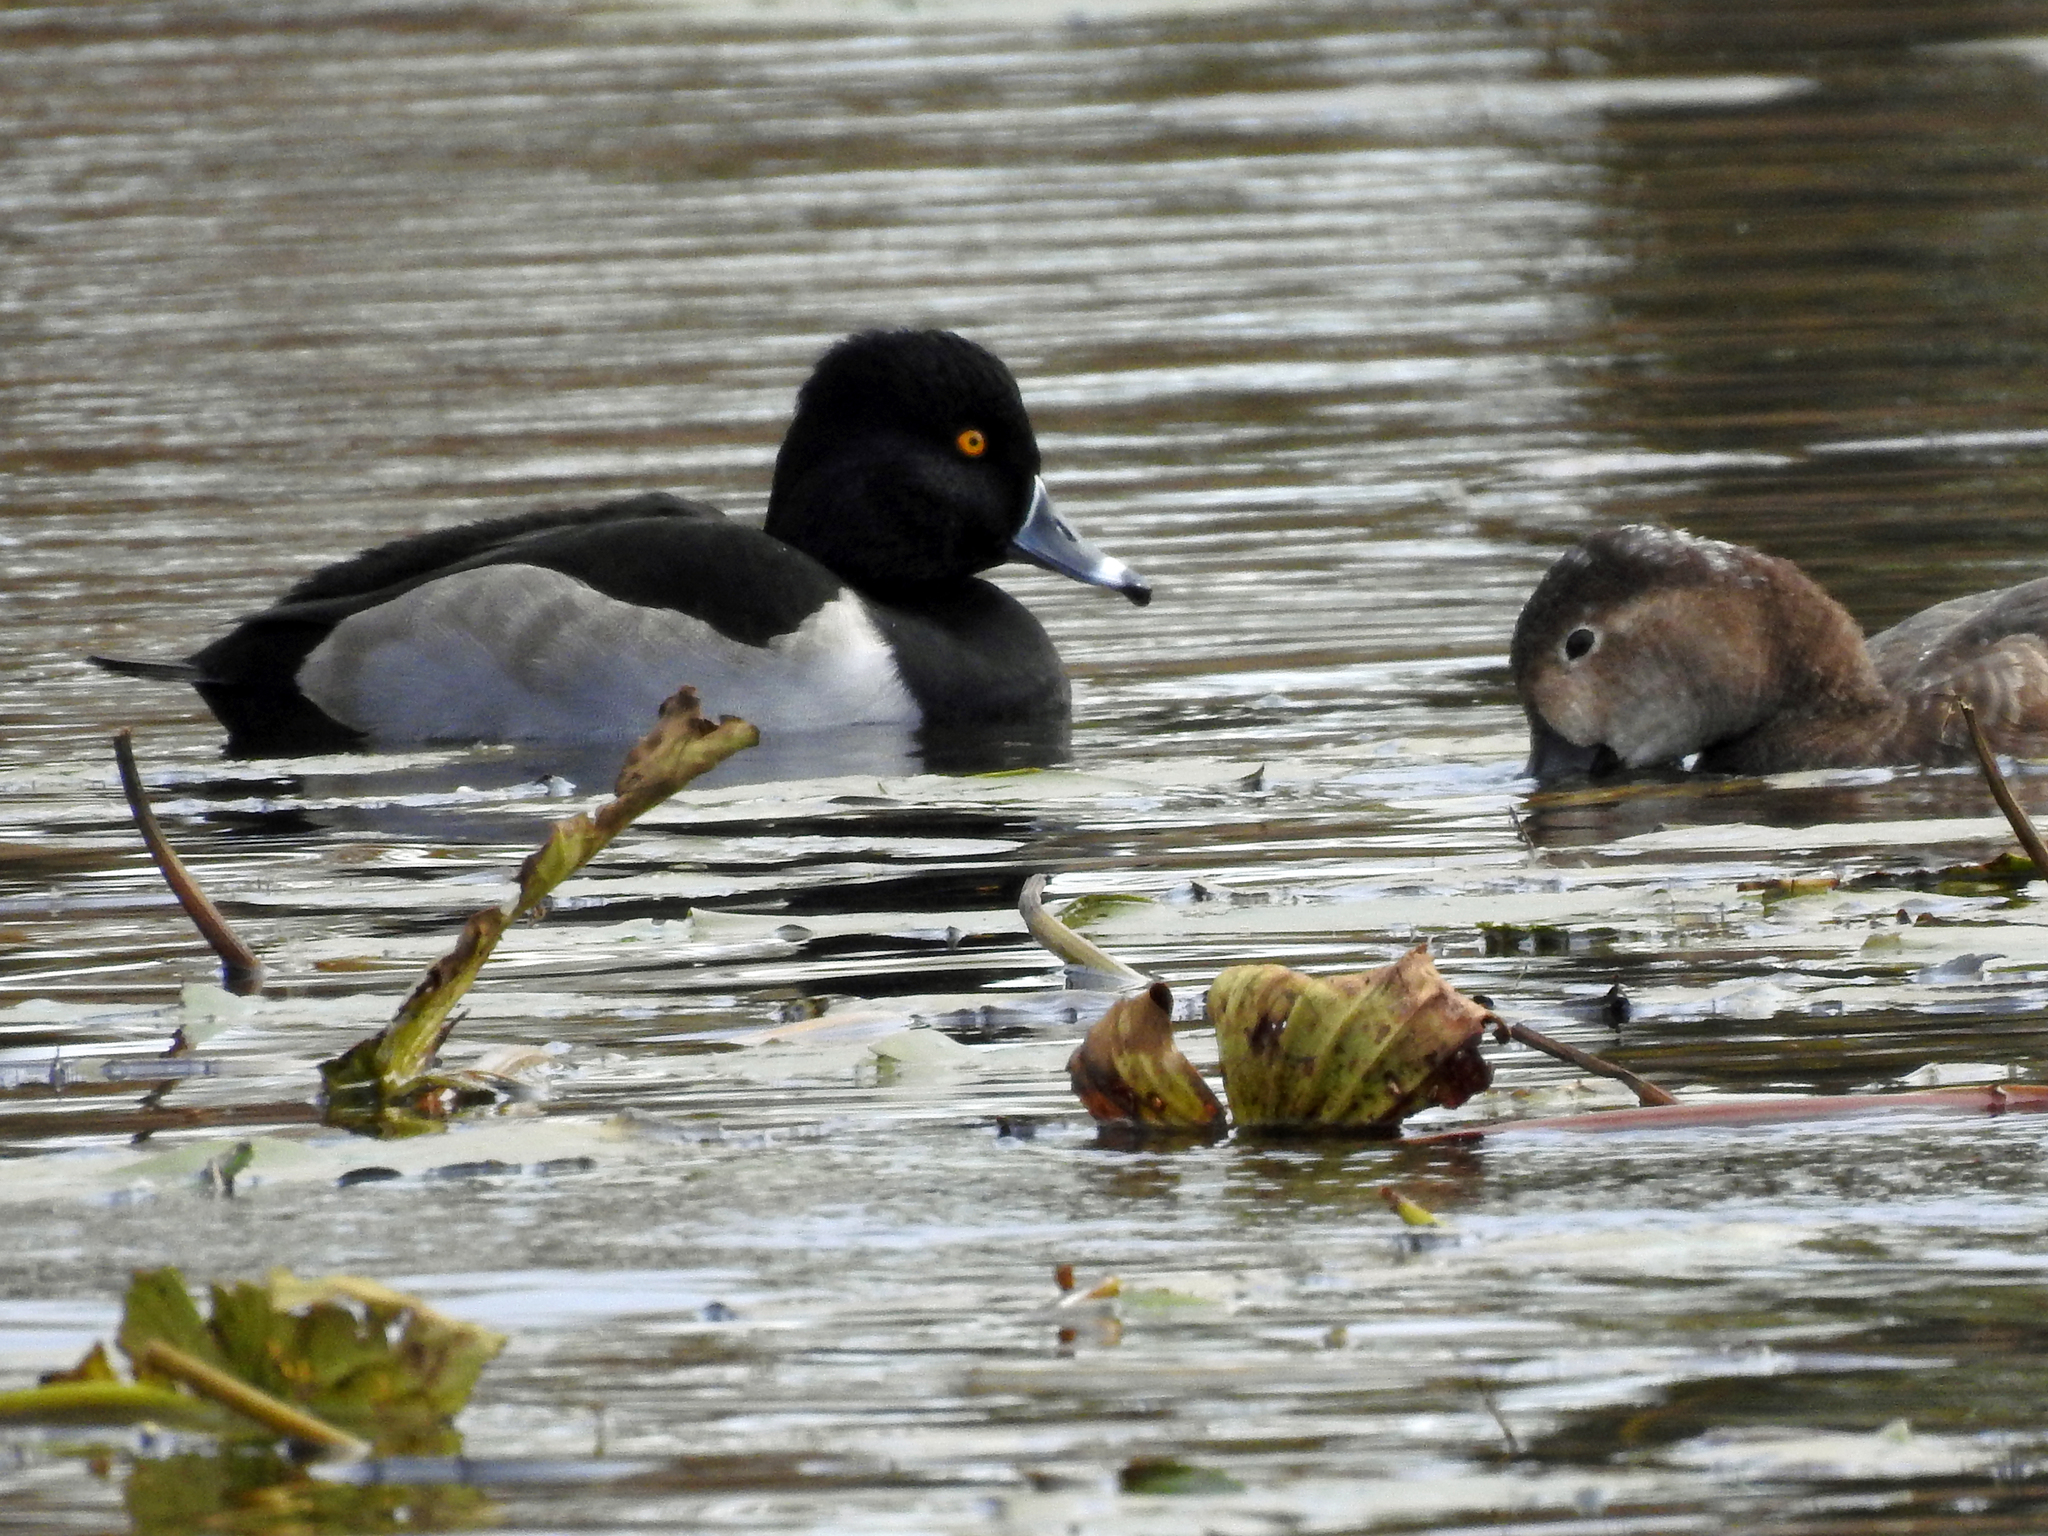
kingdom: Animalia
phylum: Chordata
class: Aves
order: Anseriformes
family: Anatidae
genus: Aythya
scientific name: Aythya collaris
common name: Ring-necked duck
